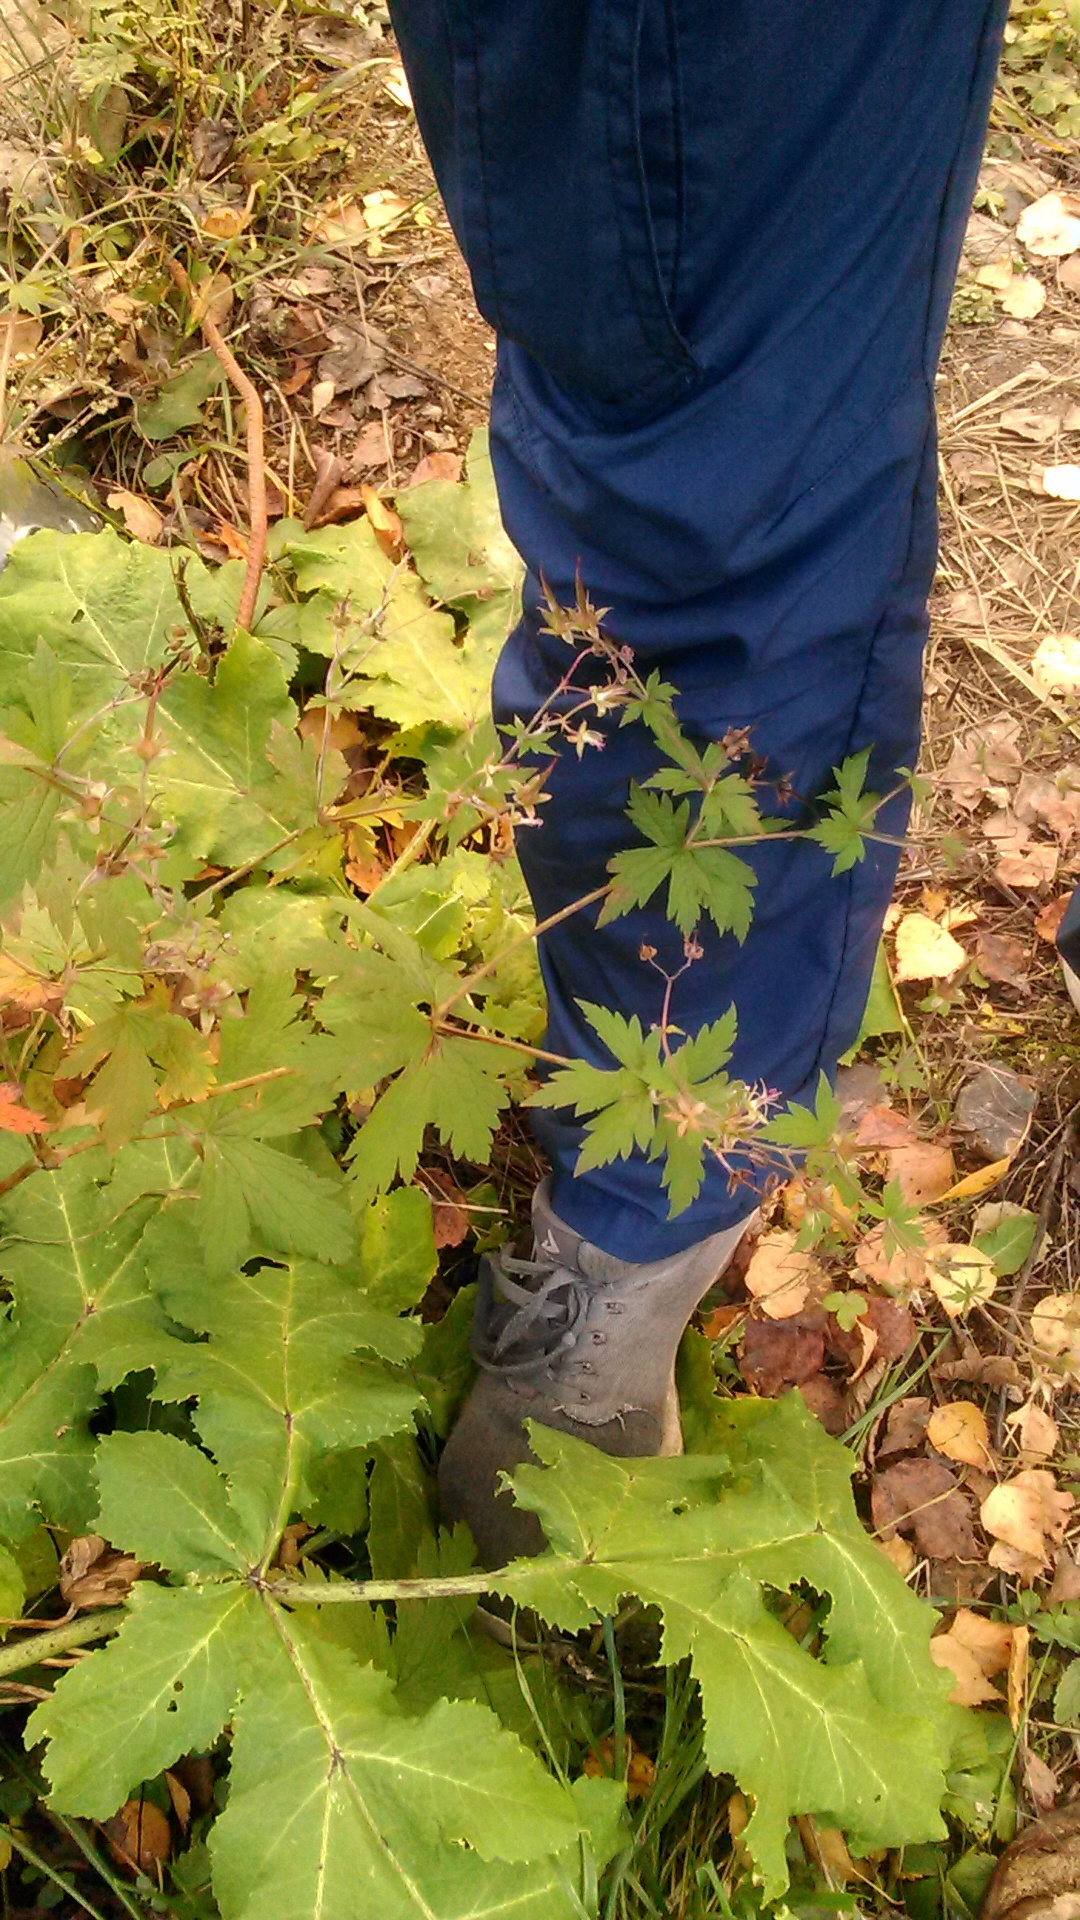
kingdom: Plantae
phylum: Tracheophyta
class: Magnoliopsida
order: Geraniales
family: Geraniaceae
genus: Geranium
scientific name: Geranium sylvaticum
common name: Wood crane's-bill
